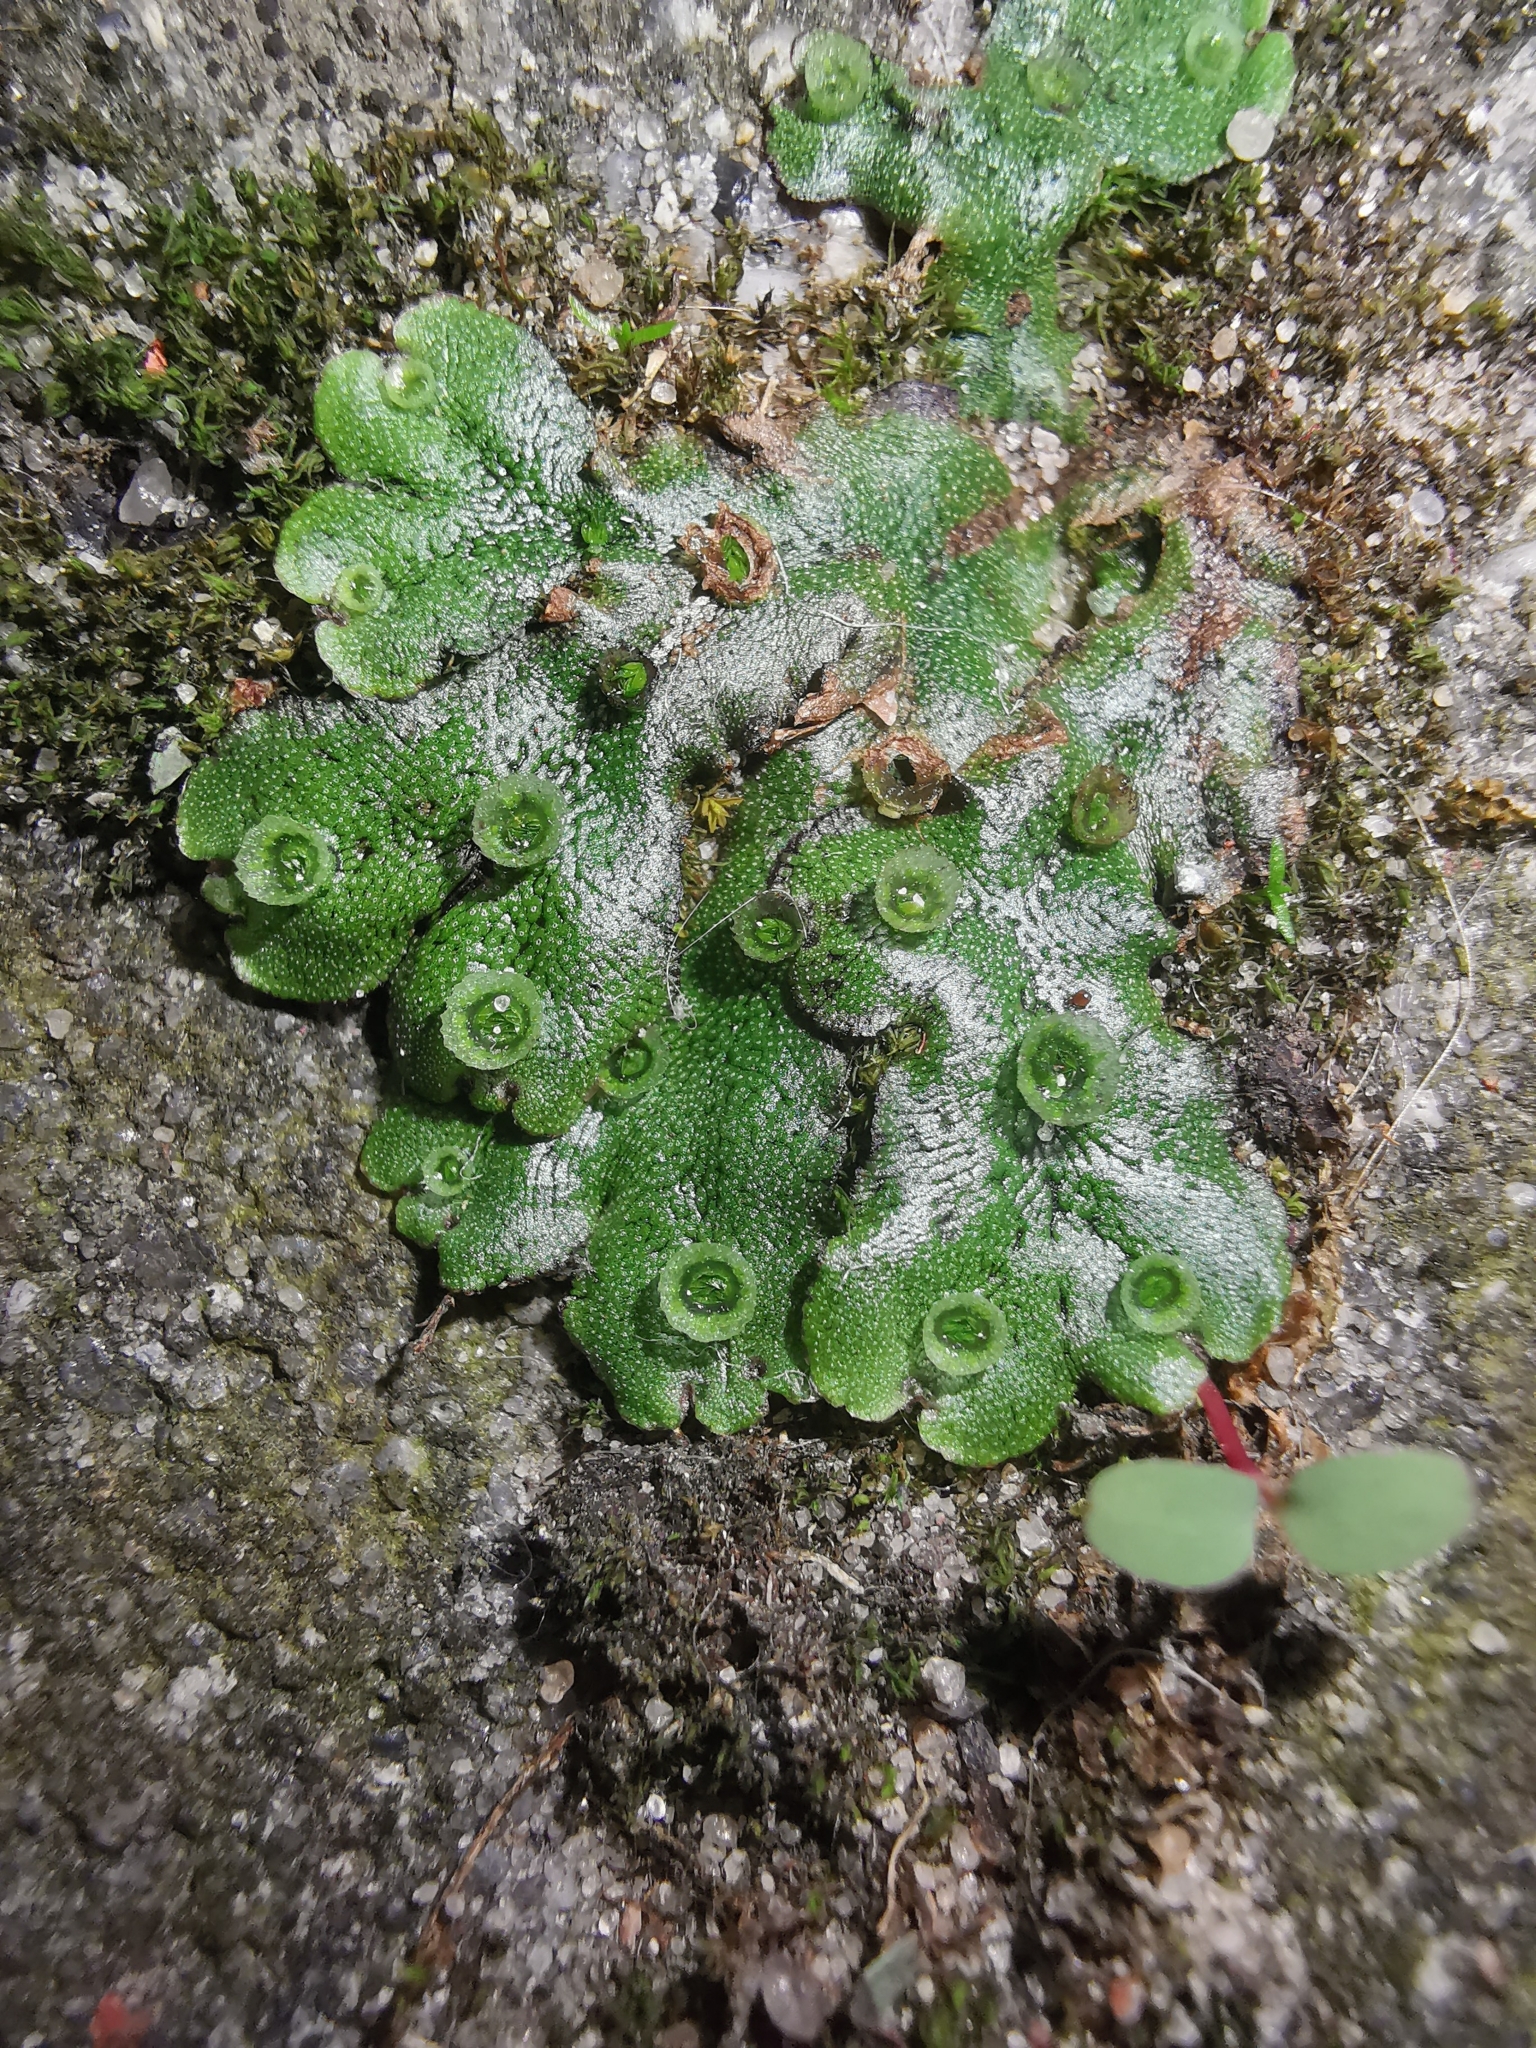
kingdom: Plantae
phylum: Marchantiophyta
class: Marchantiopsida
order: Marchantiales
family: Marchantiaceae
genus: Marchantia
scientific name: Marchantia polymorpha
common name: Common liverwort
